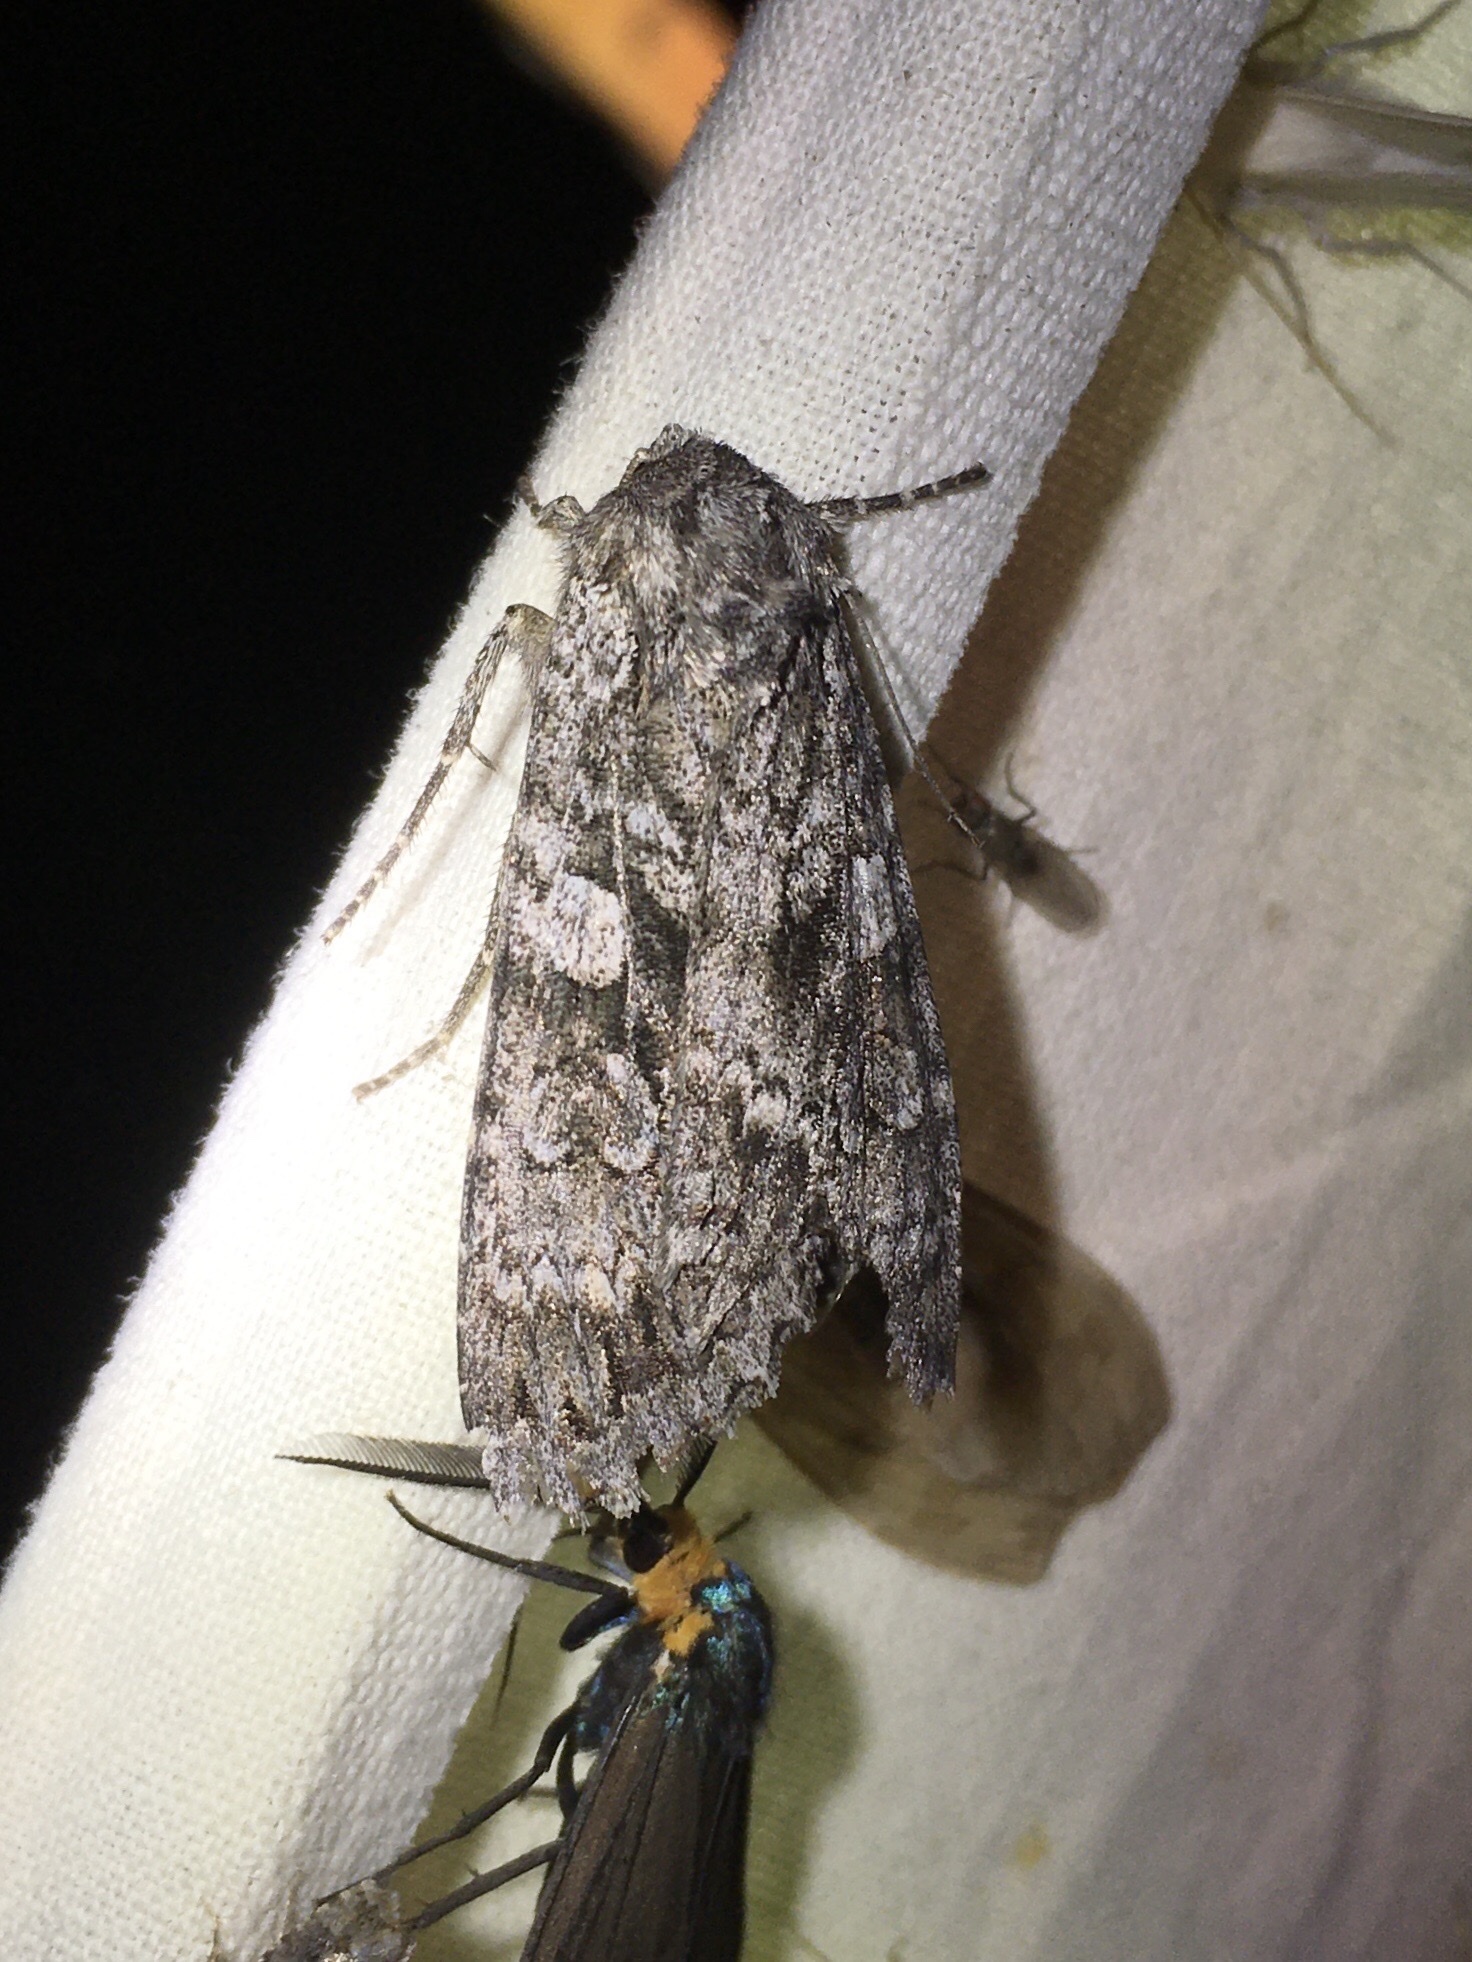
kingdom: Animalia
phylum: Arthropoda
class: Insecta
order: Lepidoptera
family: Noctuidae
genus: Eurois
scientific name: Eurois occulta
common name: Great brocade
